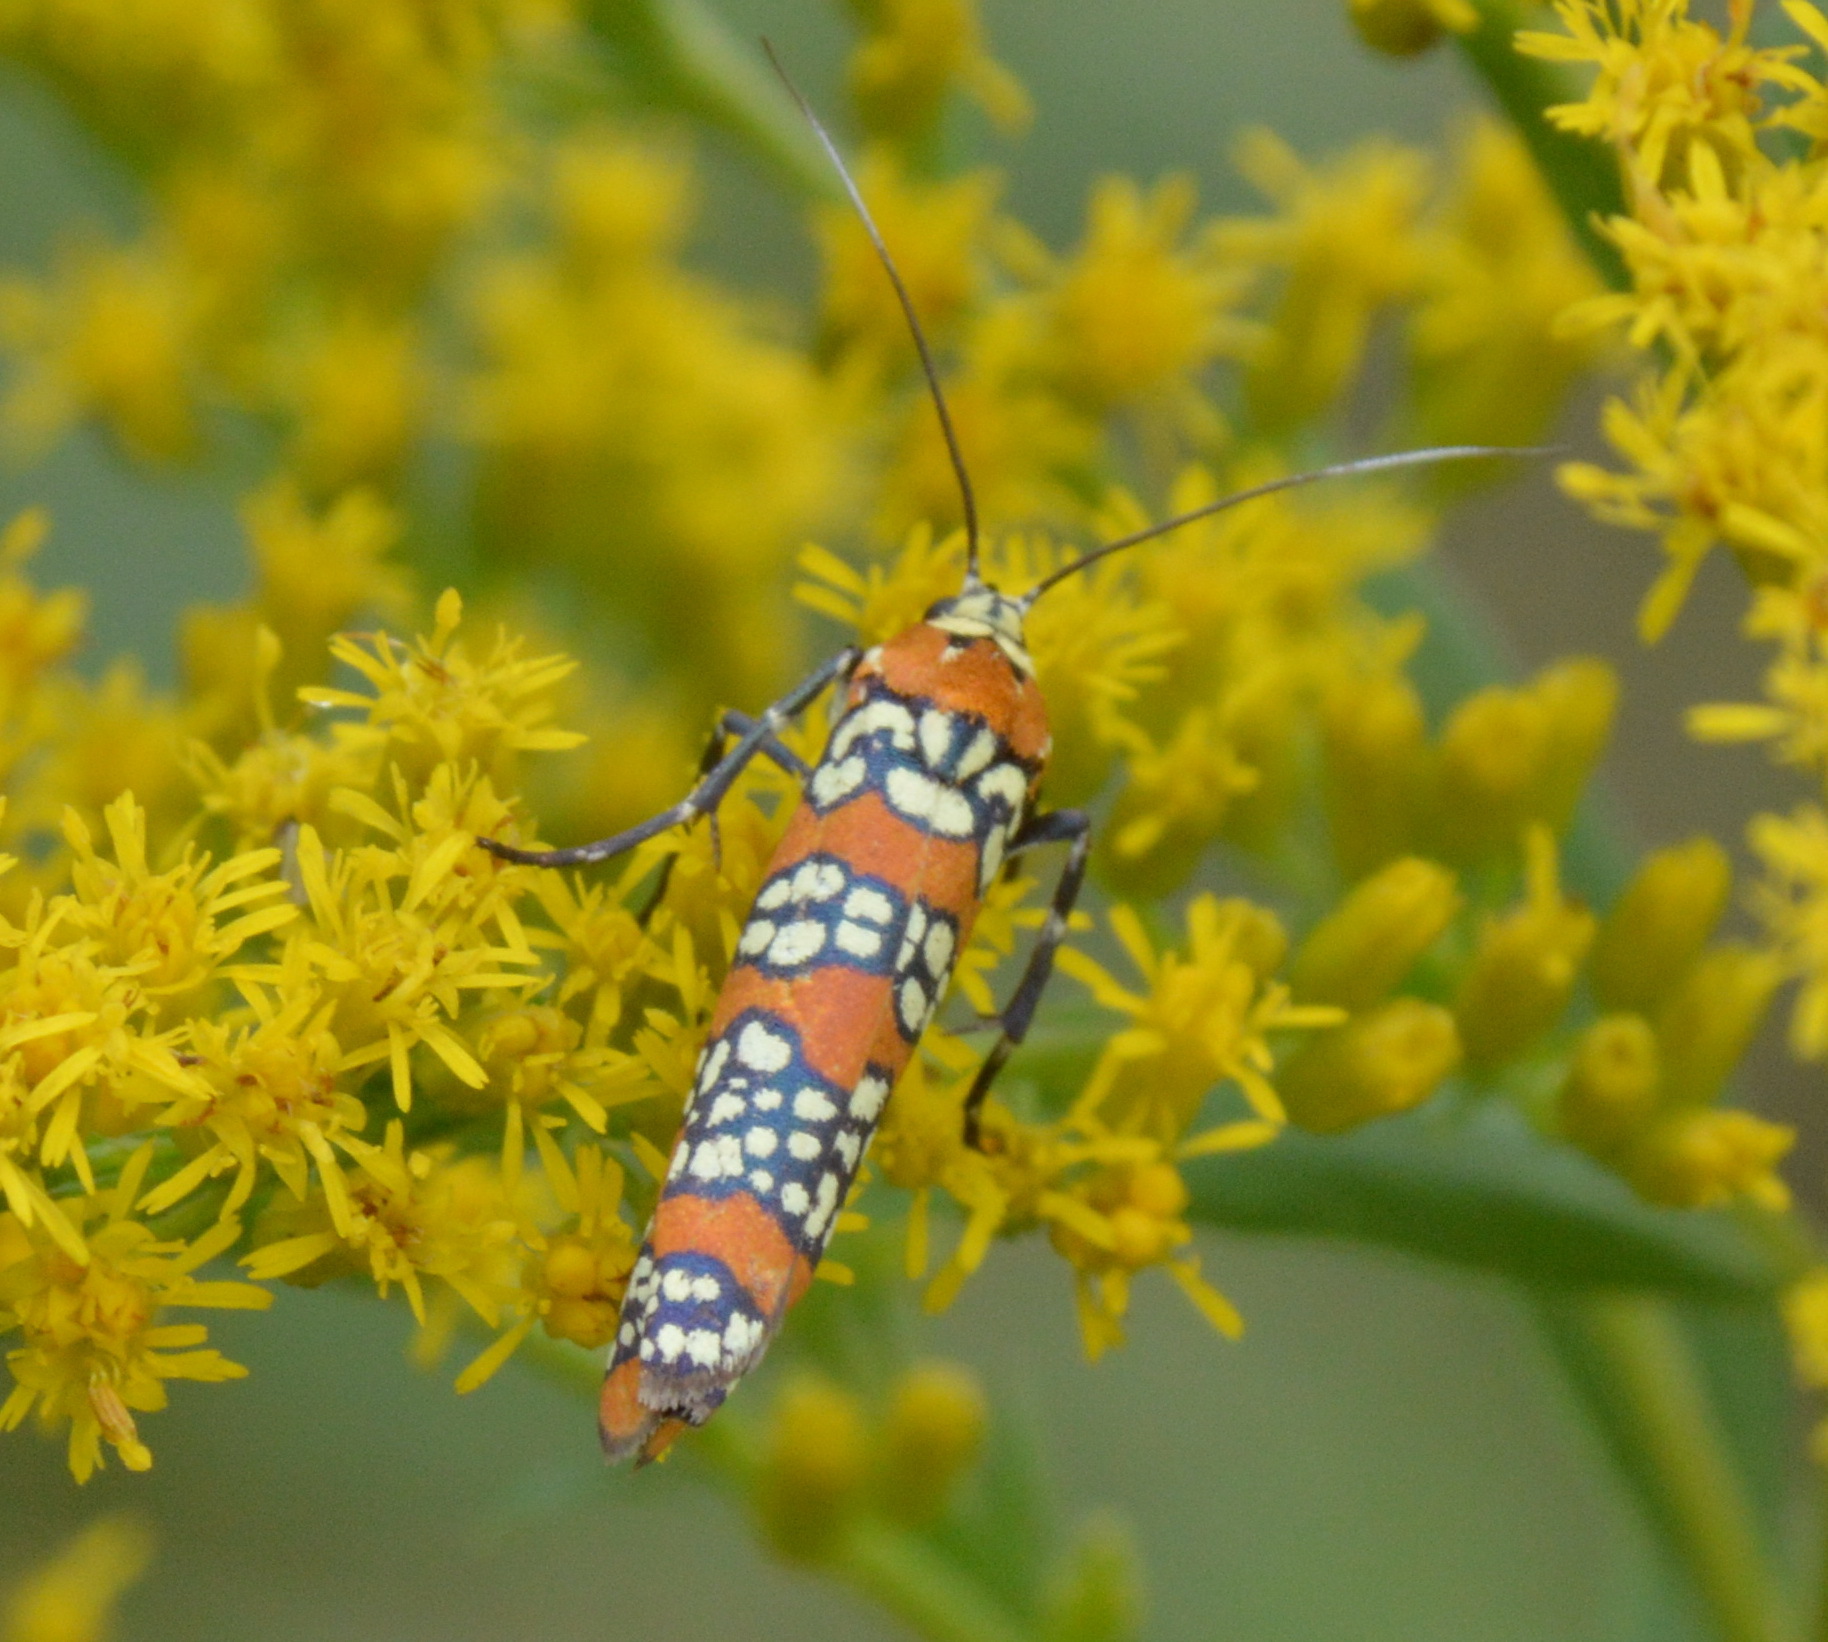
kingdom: Animalia
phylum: Arthropoda
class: Insecta
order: Lepidoptera
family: Attevidae
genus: Atteva
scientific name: Atteva punctella
